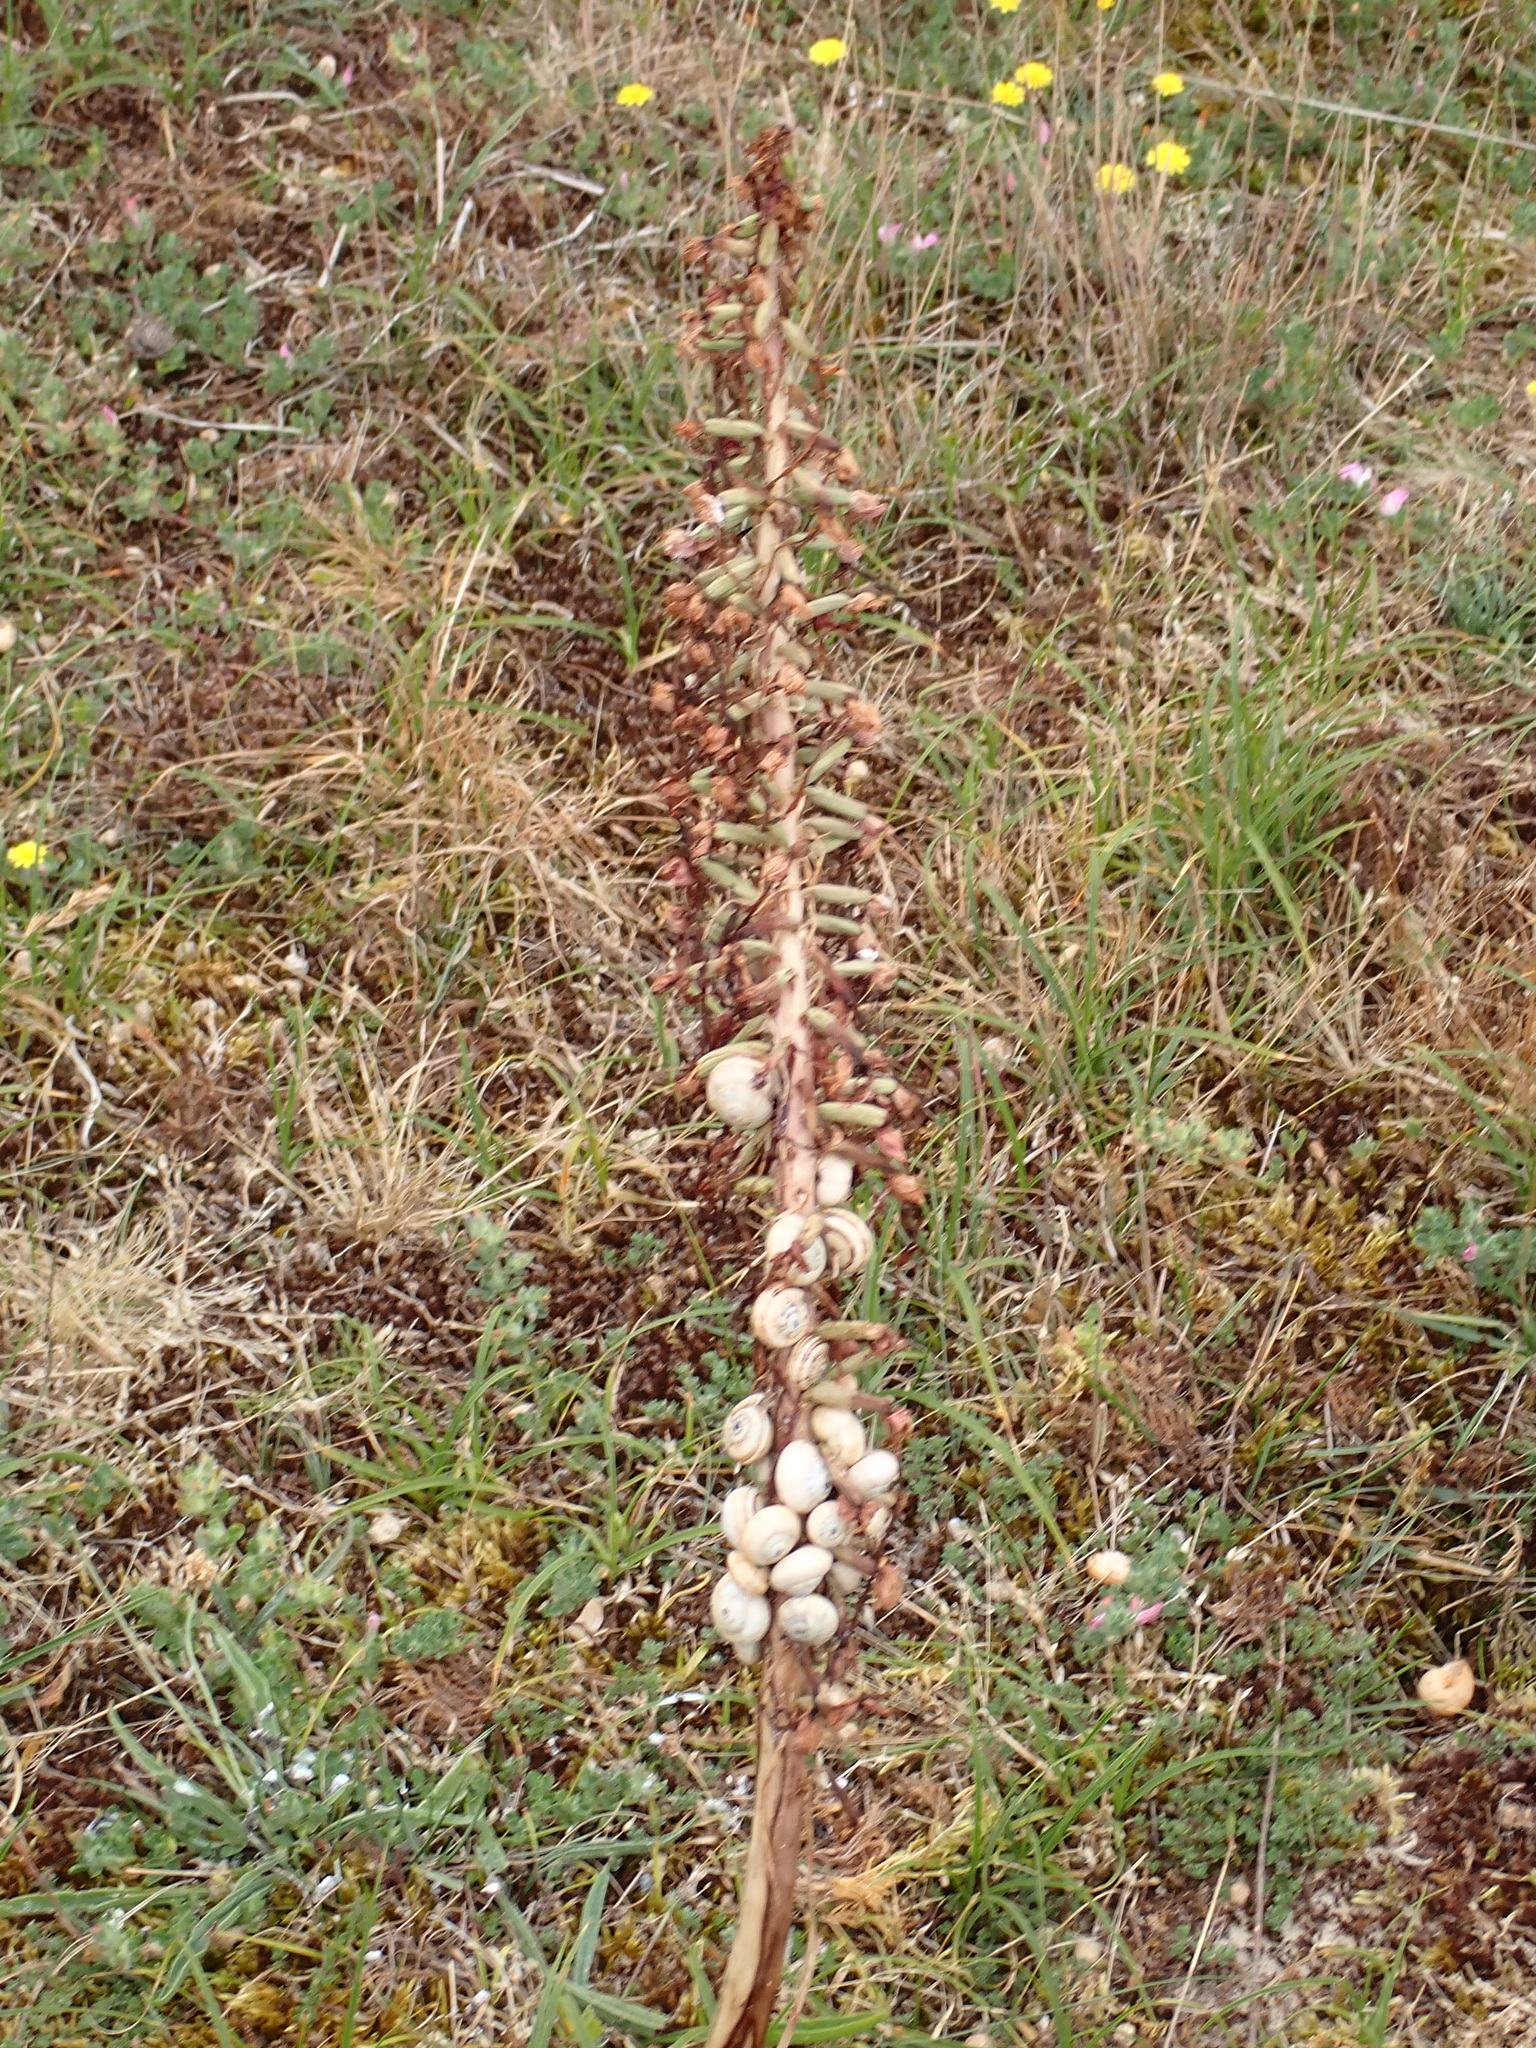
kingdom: Plantae
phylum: Tracheophyta
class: Liliopsida
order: Asparagales
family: Orchidaceae
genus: Himantoglossum
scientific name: Himantoglossum hircinum
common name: Lizard orchid
